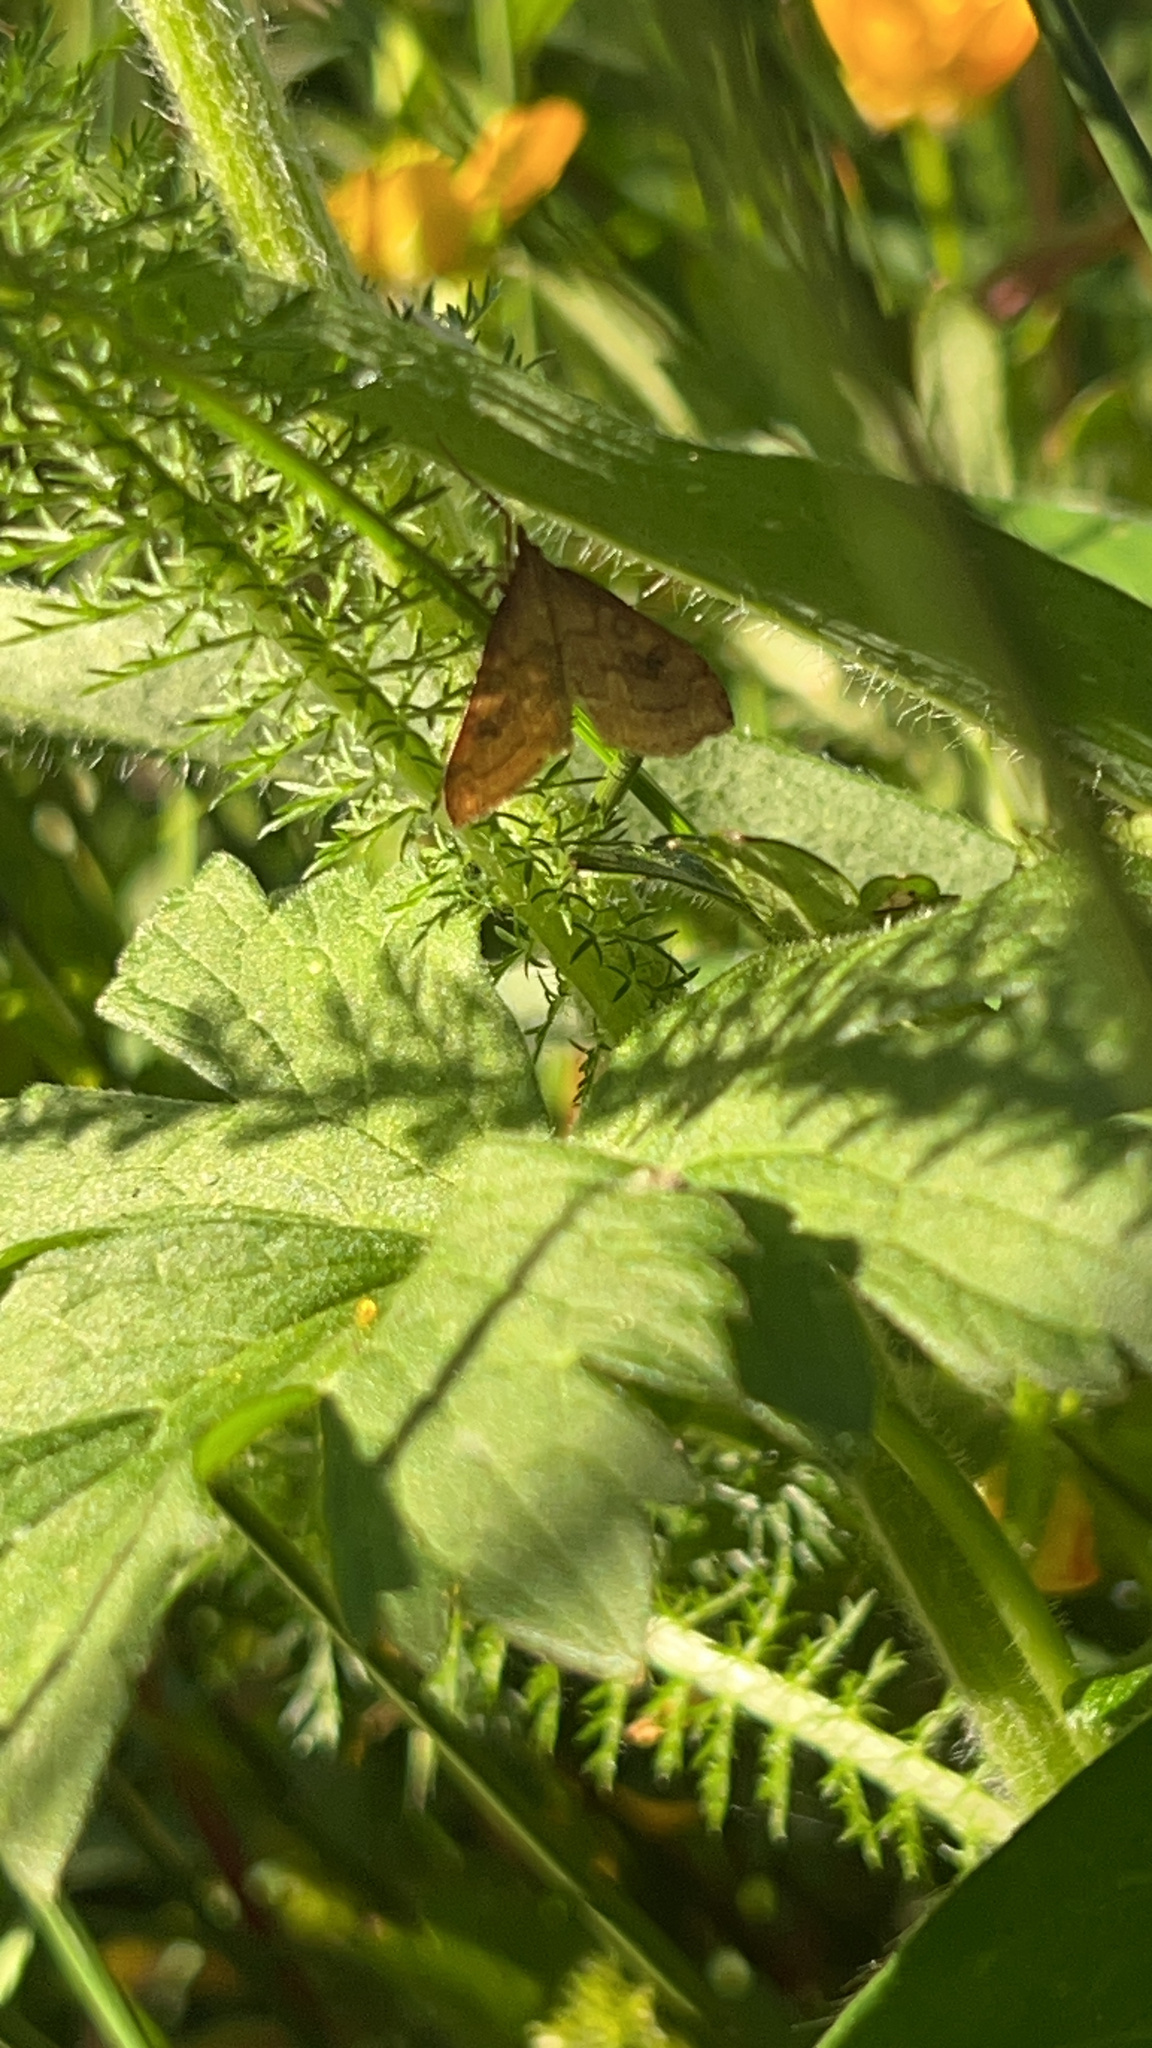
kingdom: Animalia
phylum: Arthropoda
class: Insecta
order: Lepidoptera
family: Crambidae
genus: Udea
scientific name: Udea profundalis
